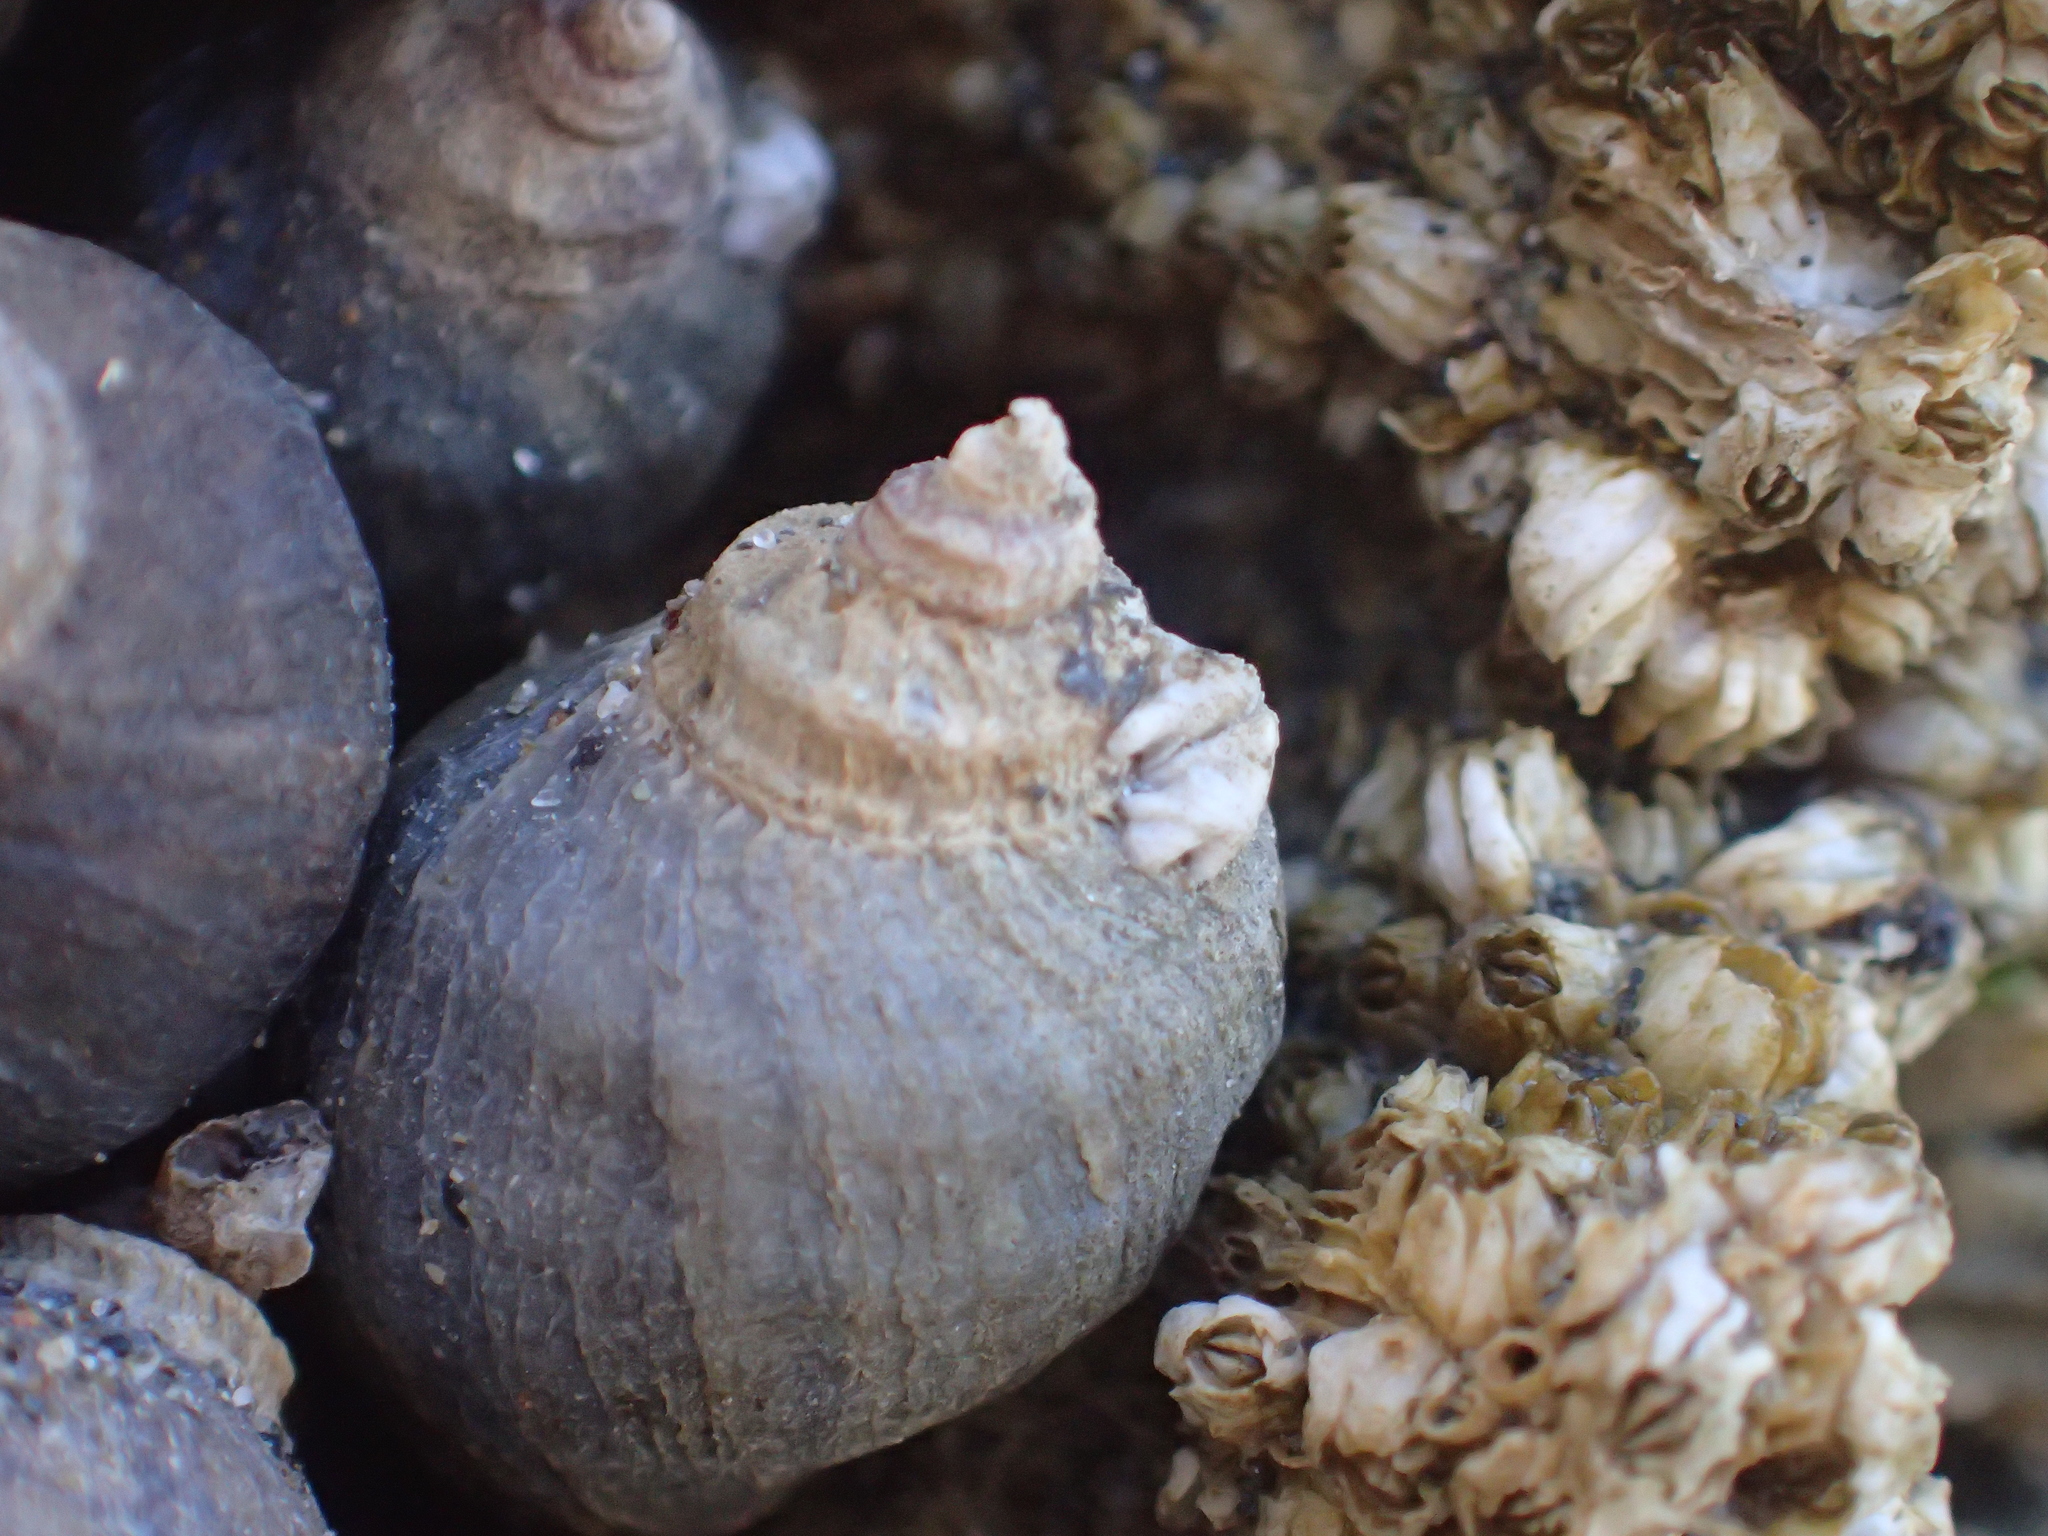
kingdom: Animalia
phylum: Mollusca
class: Gastropoda
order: Neogastropoda
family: Muricidae
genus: Nucella
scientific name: Nucella ostrina
